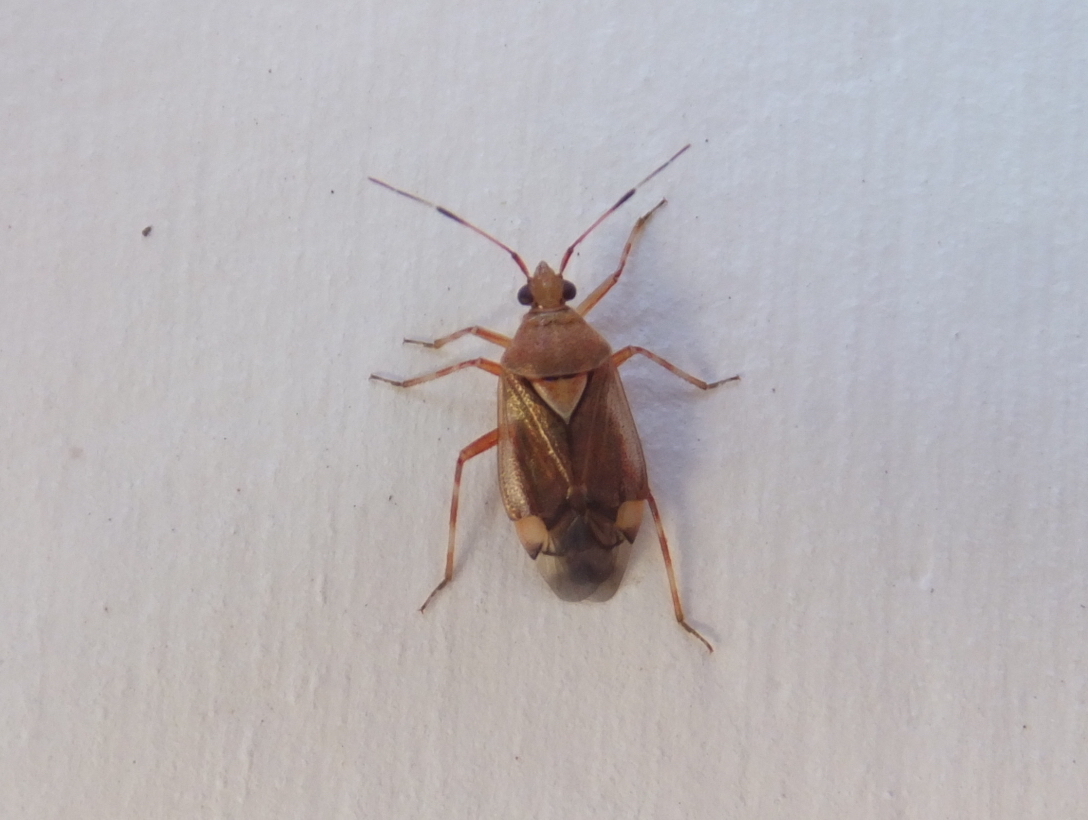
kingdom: Animalia
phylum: Arthropoda
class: Insecta
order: Hemiptera
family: Miridae
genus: Deraeocoris
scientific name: Deraeocoris flavilinea
